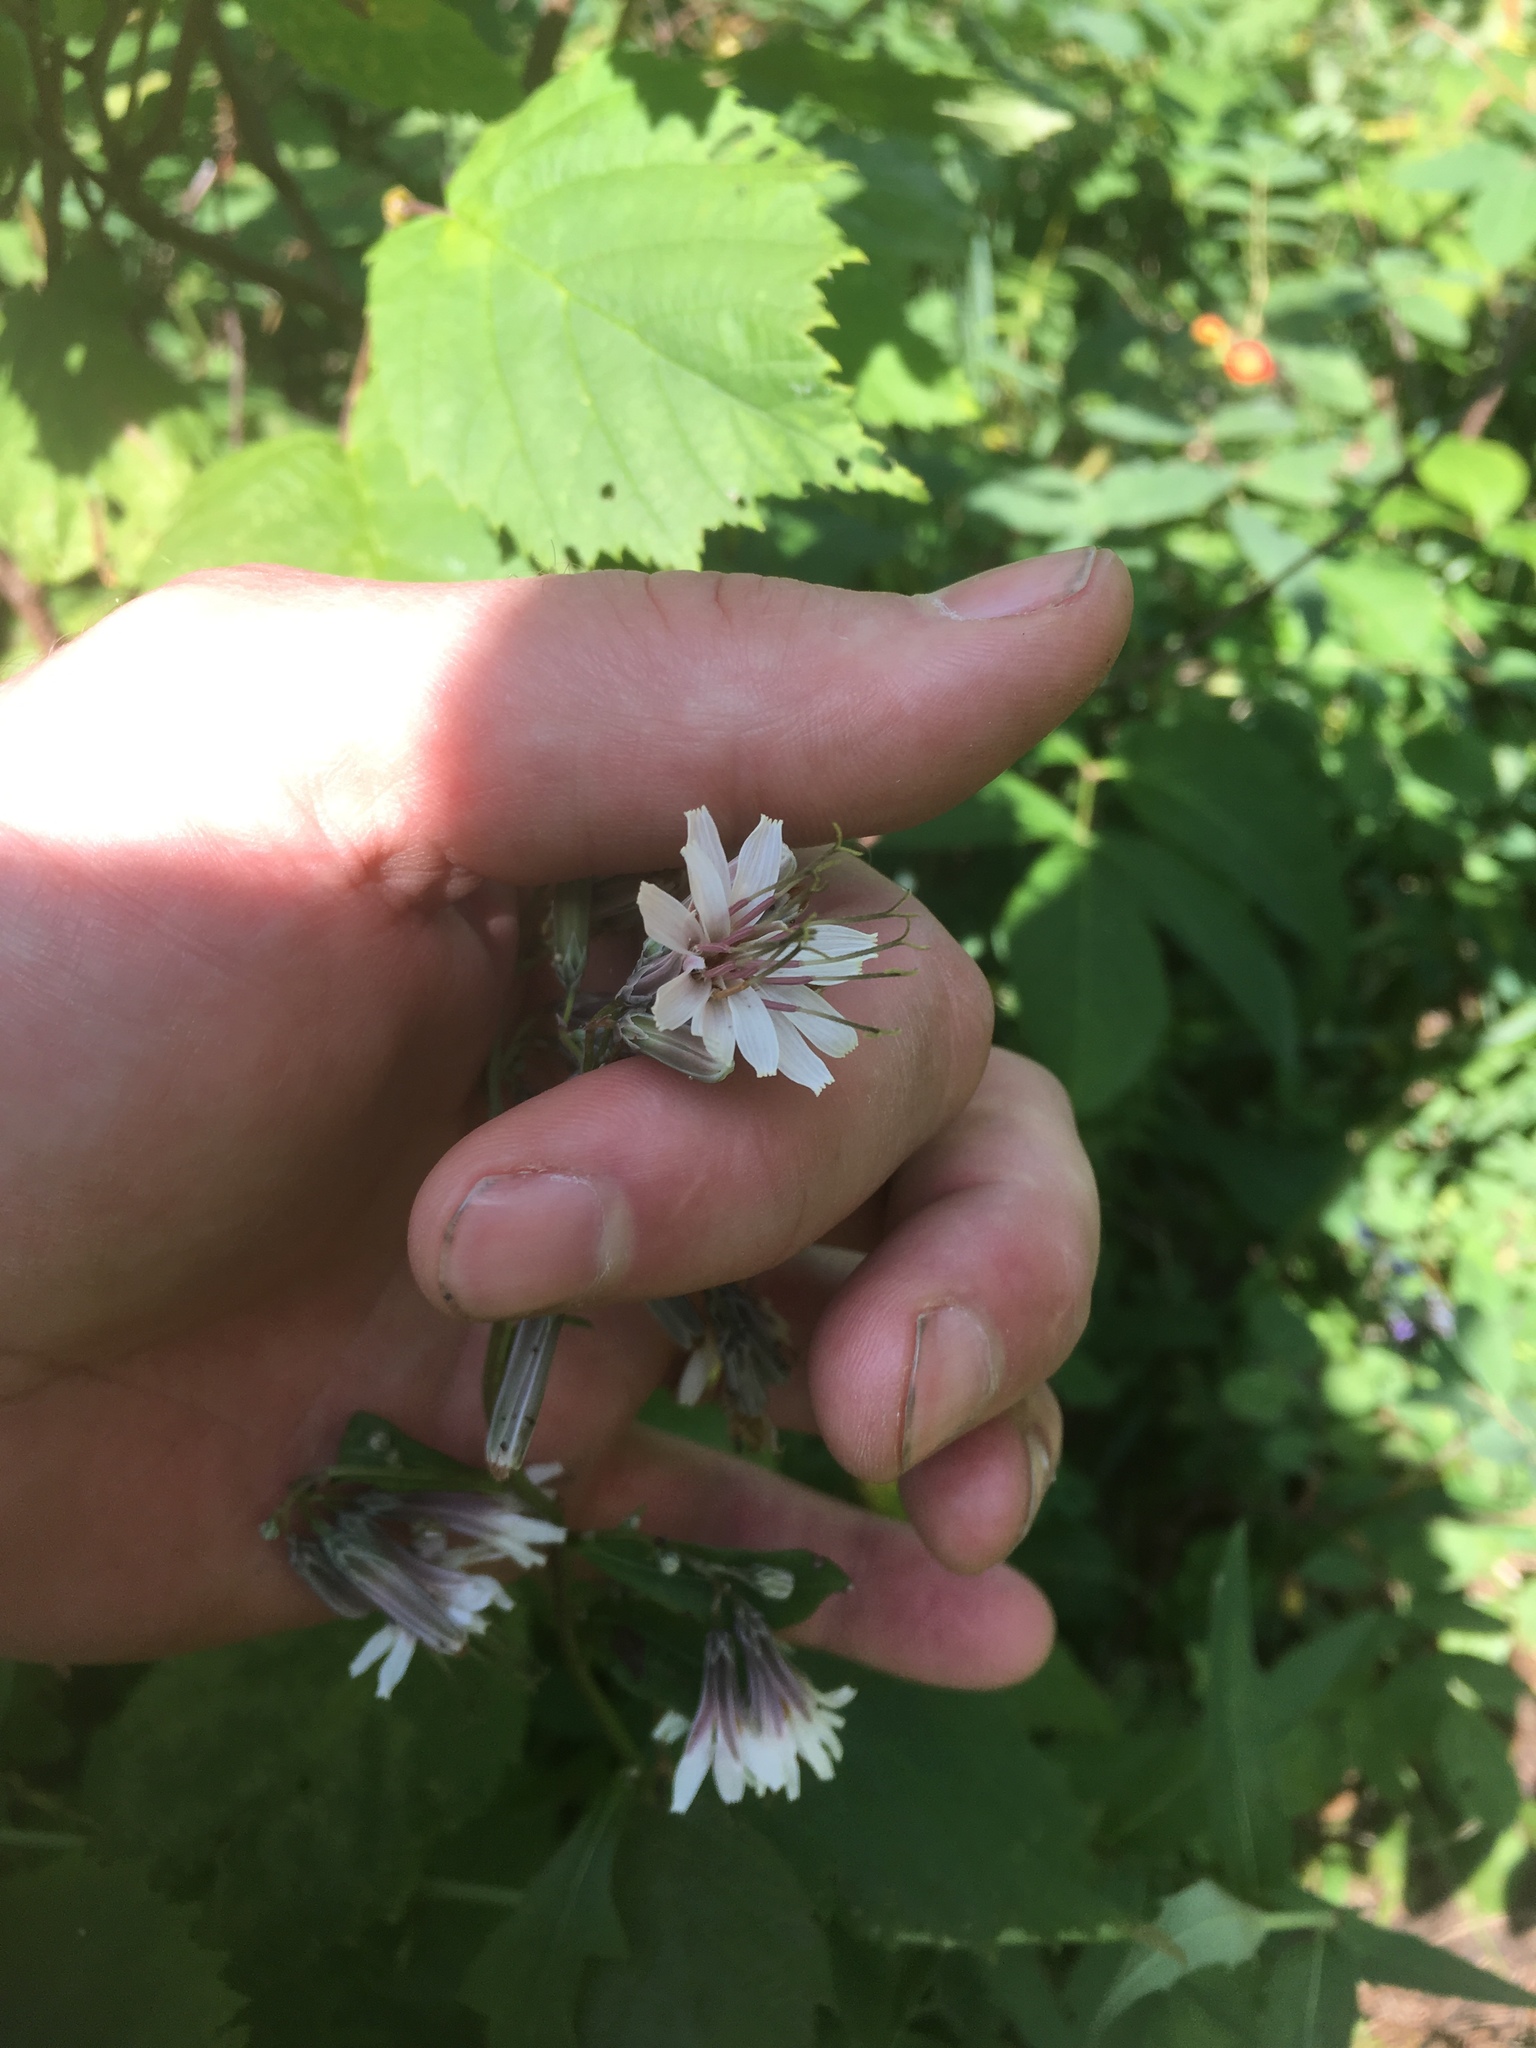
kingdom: Plantae
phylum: Tracheophyta
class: Magnoliopsida
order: Asterales
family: Asteraceae
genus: Nabalus
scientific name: Nabalus albus
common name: White rattlesnakeroot
